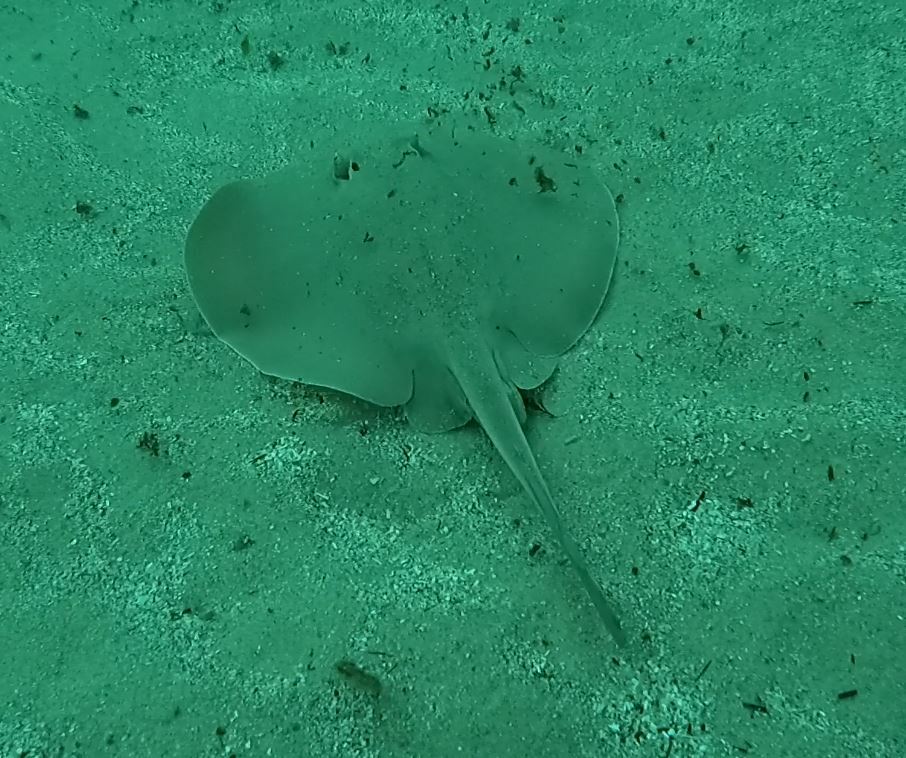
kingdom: Animalia
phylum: Chordata
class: Elasmobranchii
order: Myliobatiformes
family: Urolophidae
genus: Trygonoptera
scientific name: Trygonoptera testacea
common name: Common stingaree
